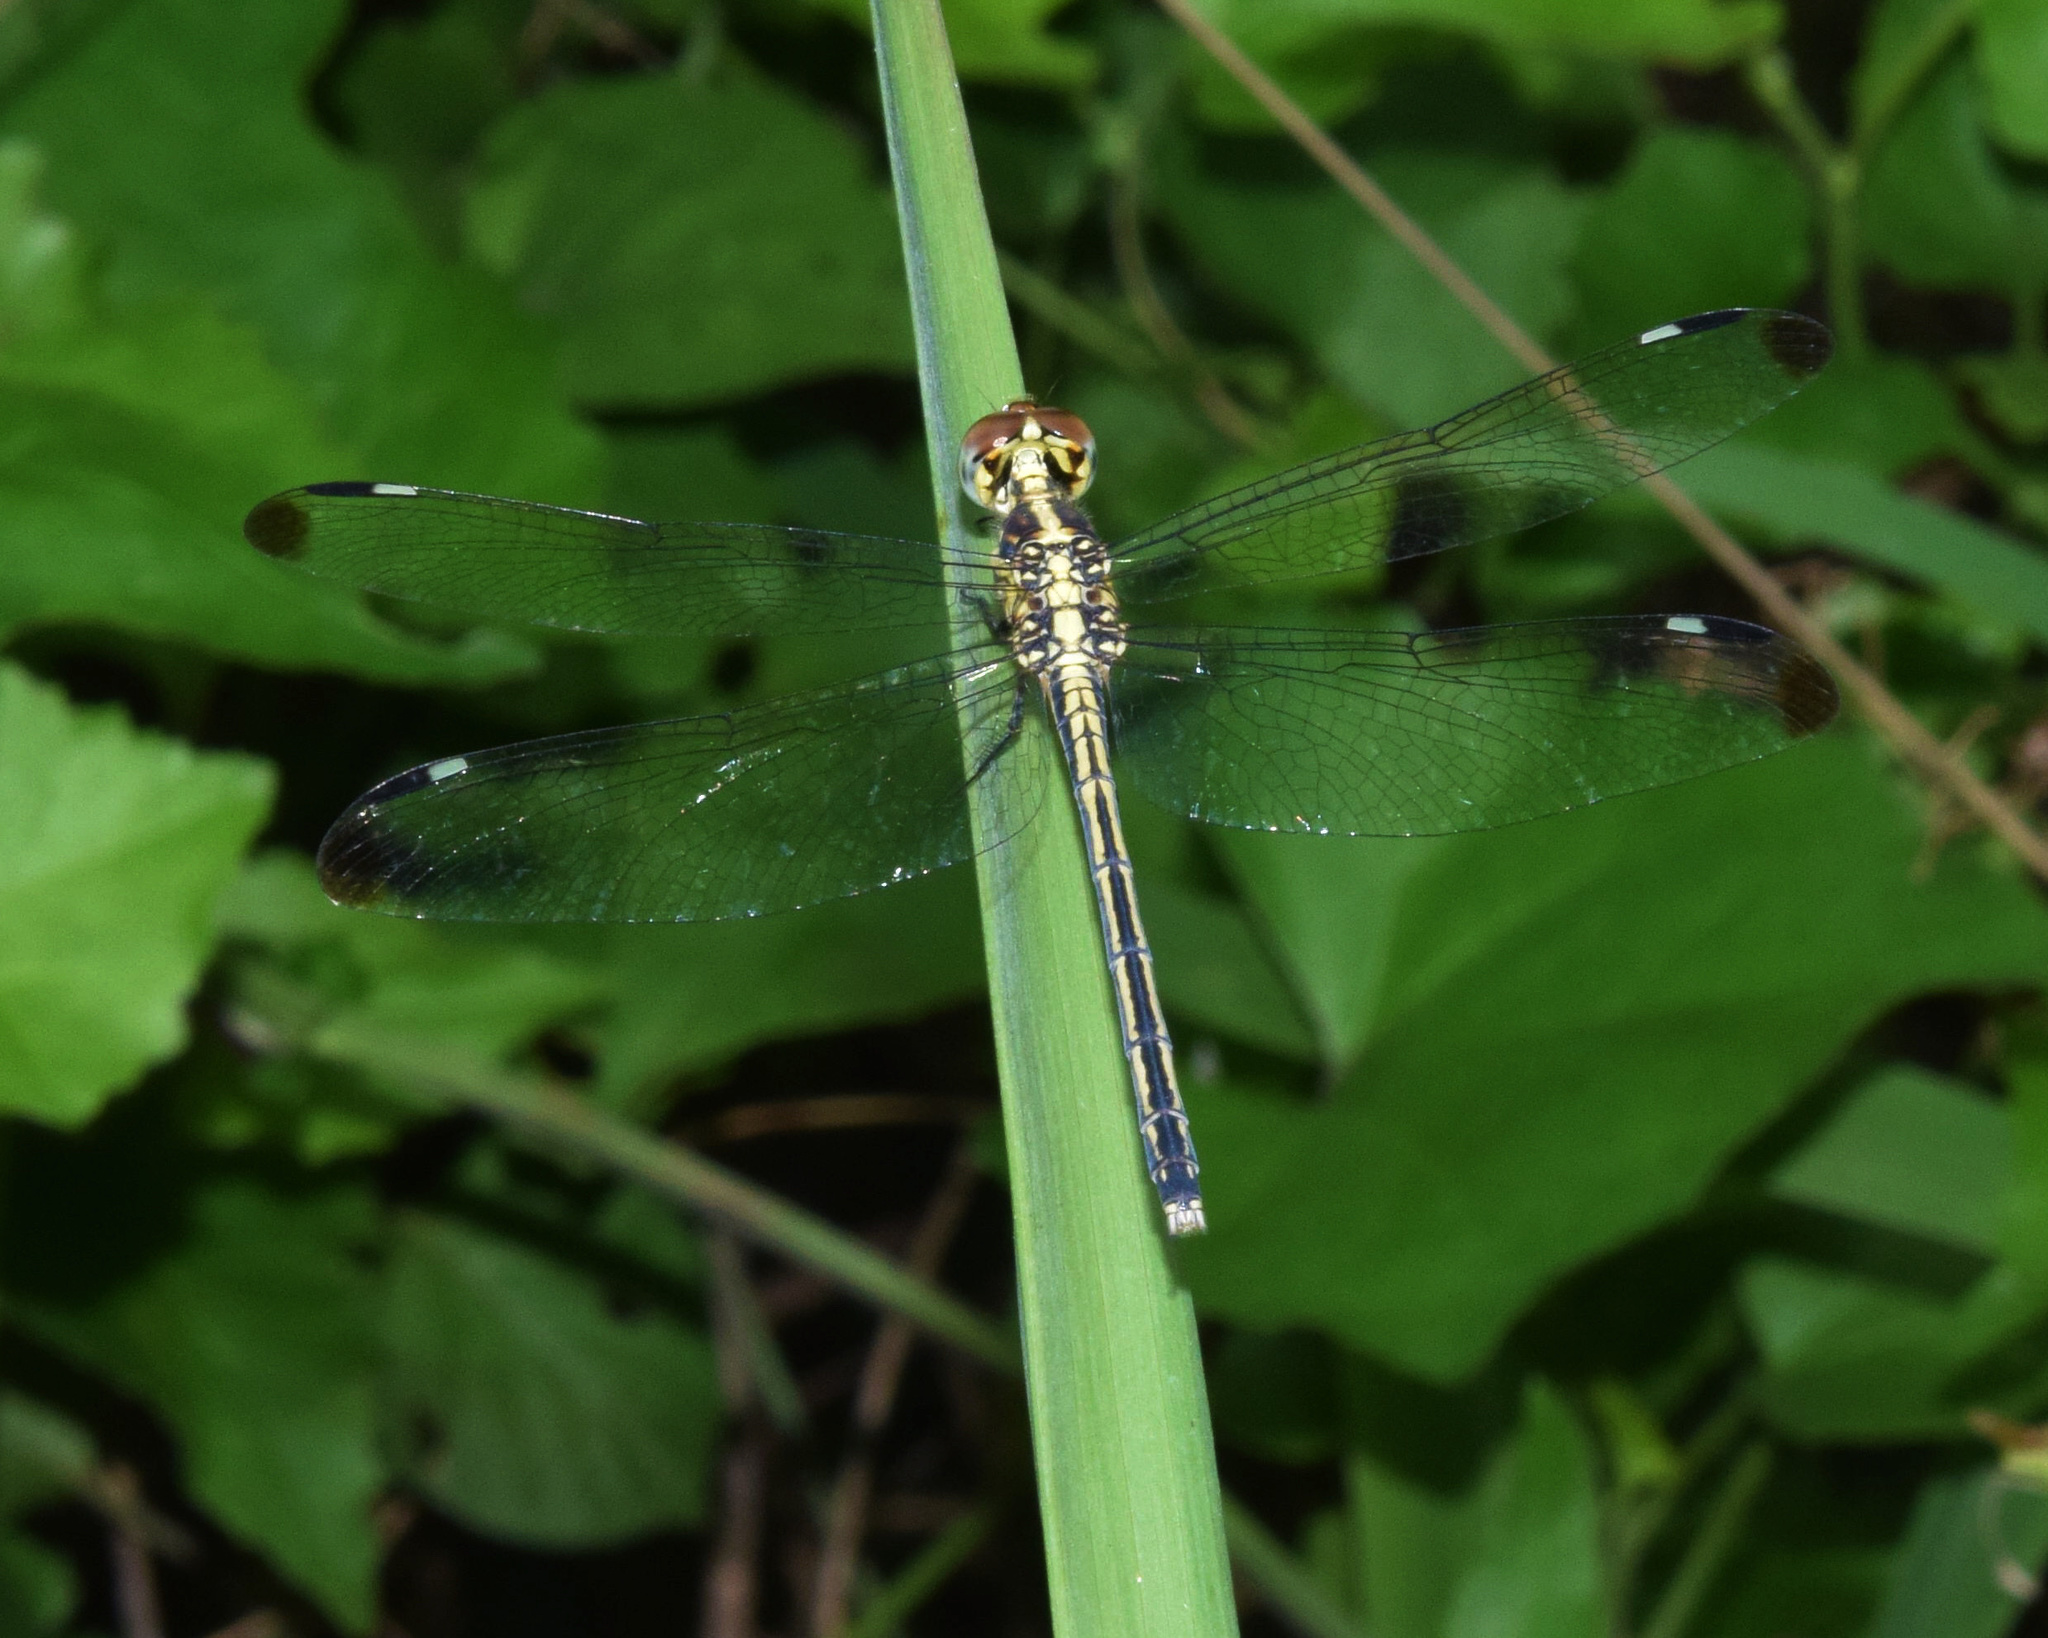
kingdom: Animalia
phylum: Arthropoda
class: Insecta
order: Odonata
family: Libellulidae
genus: Hemistigma
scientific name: Hemistigma albipunctum
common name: African pied-spot
